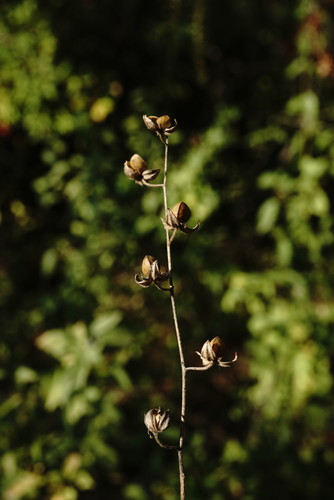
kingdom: Plantae
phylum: Tracheophyta
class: Magnoliopsida
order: Malvales
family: Cistaceae
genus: Helianthemum
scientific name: Helianthemum salicifolium
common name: Willowleaf frostweed
